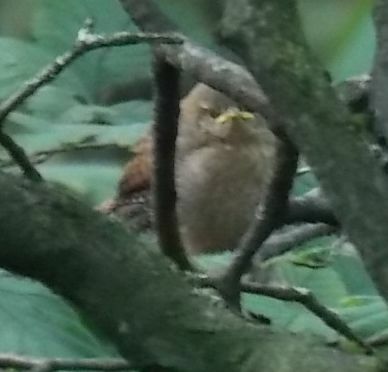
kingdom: Animalia
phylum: Chordata
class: Aves
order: Passeriformes
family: Troglodytidae
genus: Troglodytes
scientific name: Troglodytes troglodytes
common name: Eurasian wren
